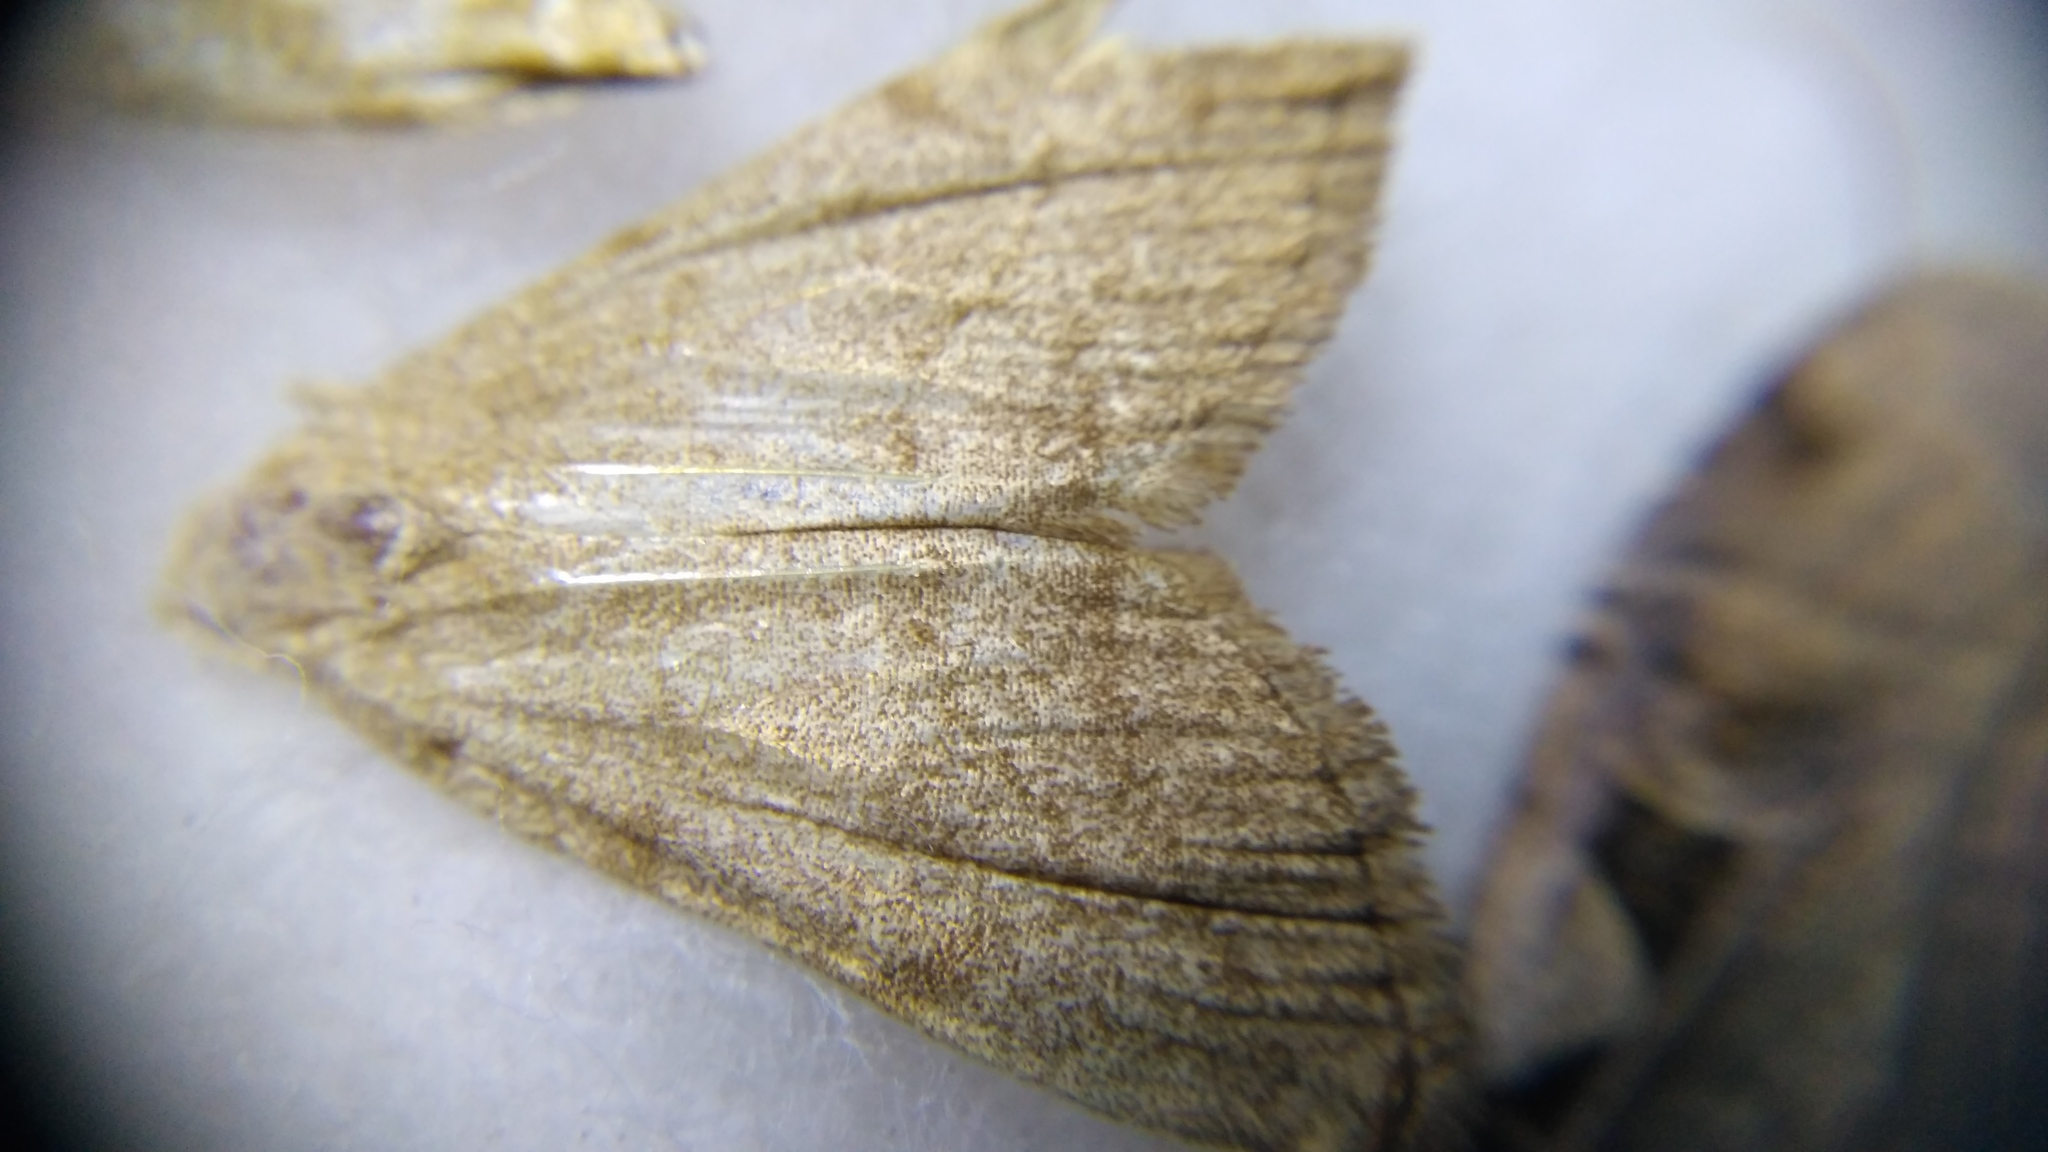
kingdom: Animalia
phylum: Arthropoda
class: Insecta
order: Lepidoptera
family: Erebidae
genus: Pechipogo
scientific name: Pechipogo strigilata
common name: Common fan-foot
